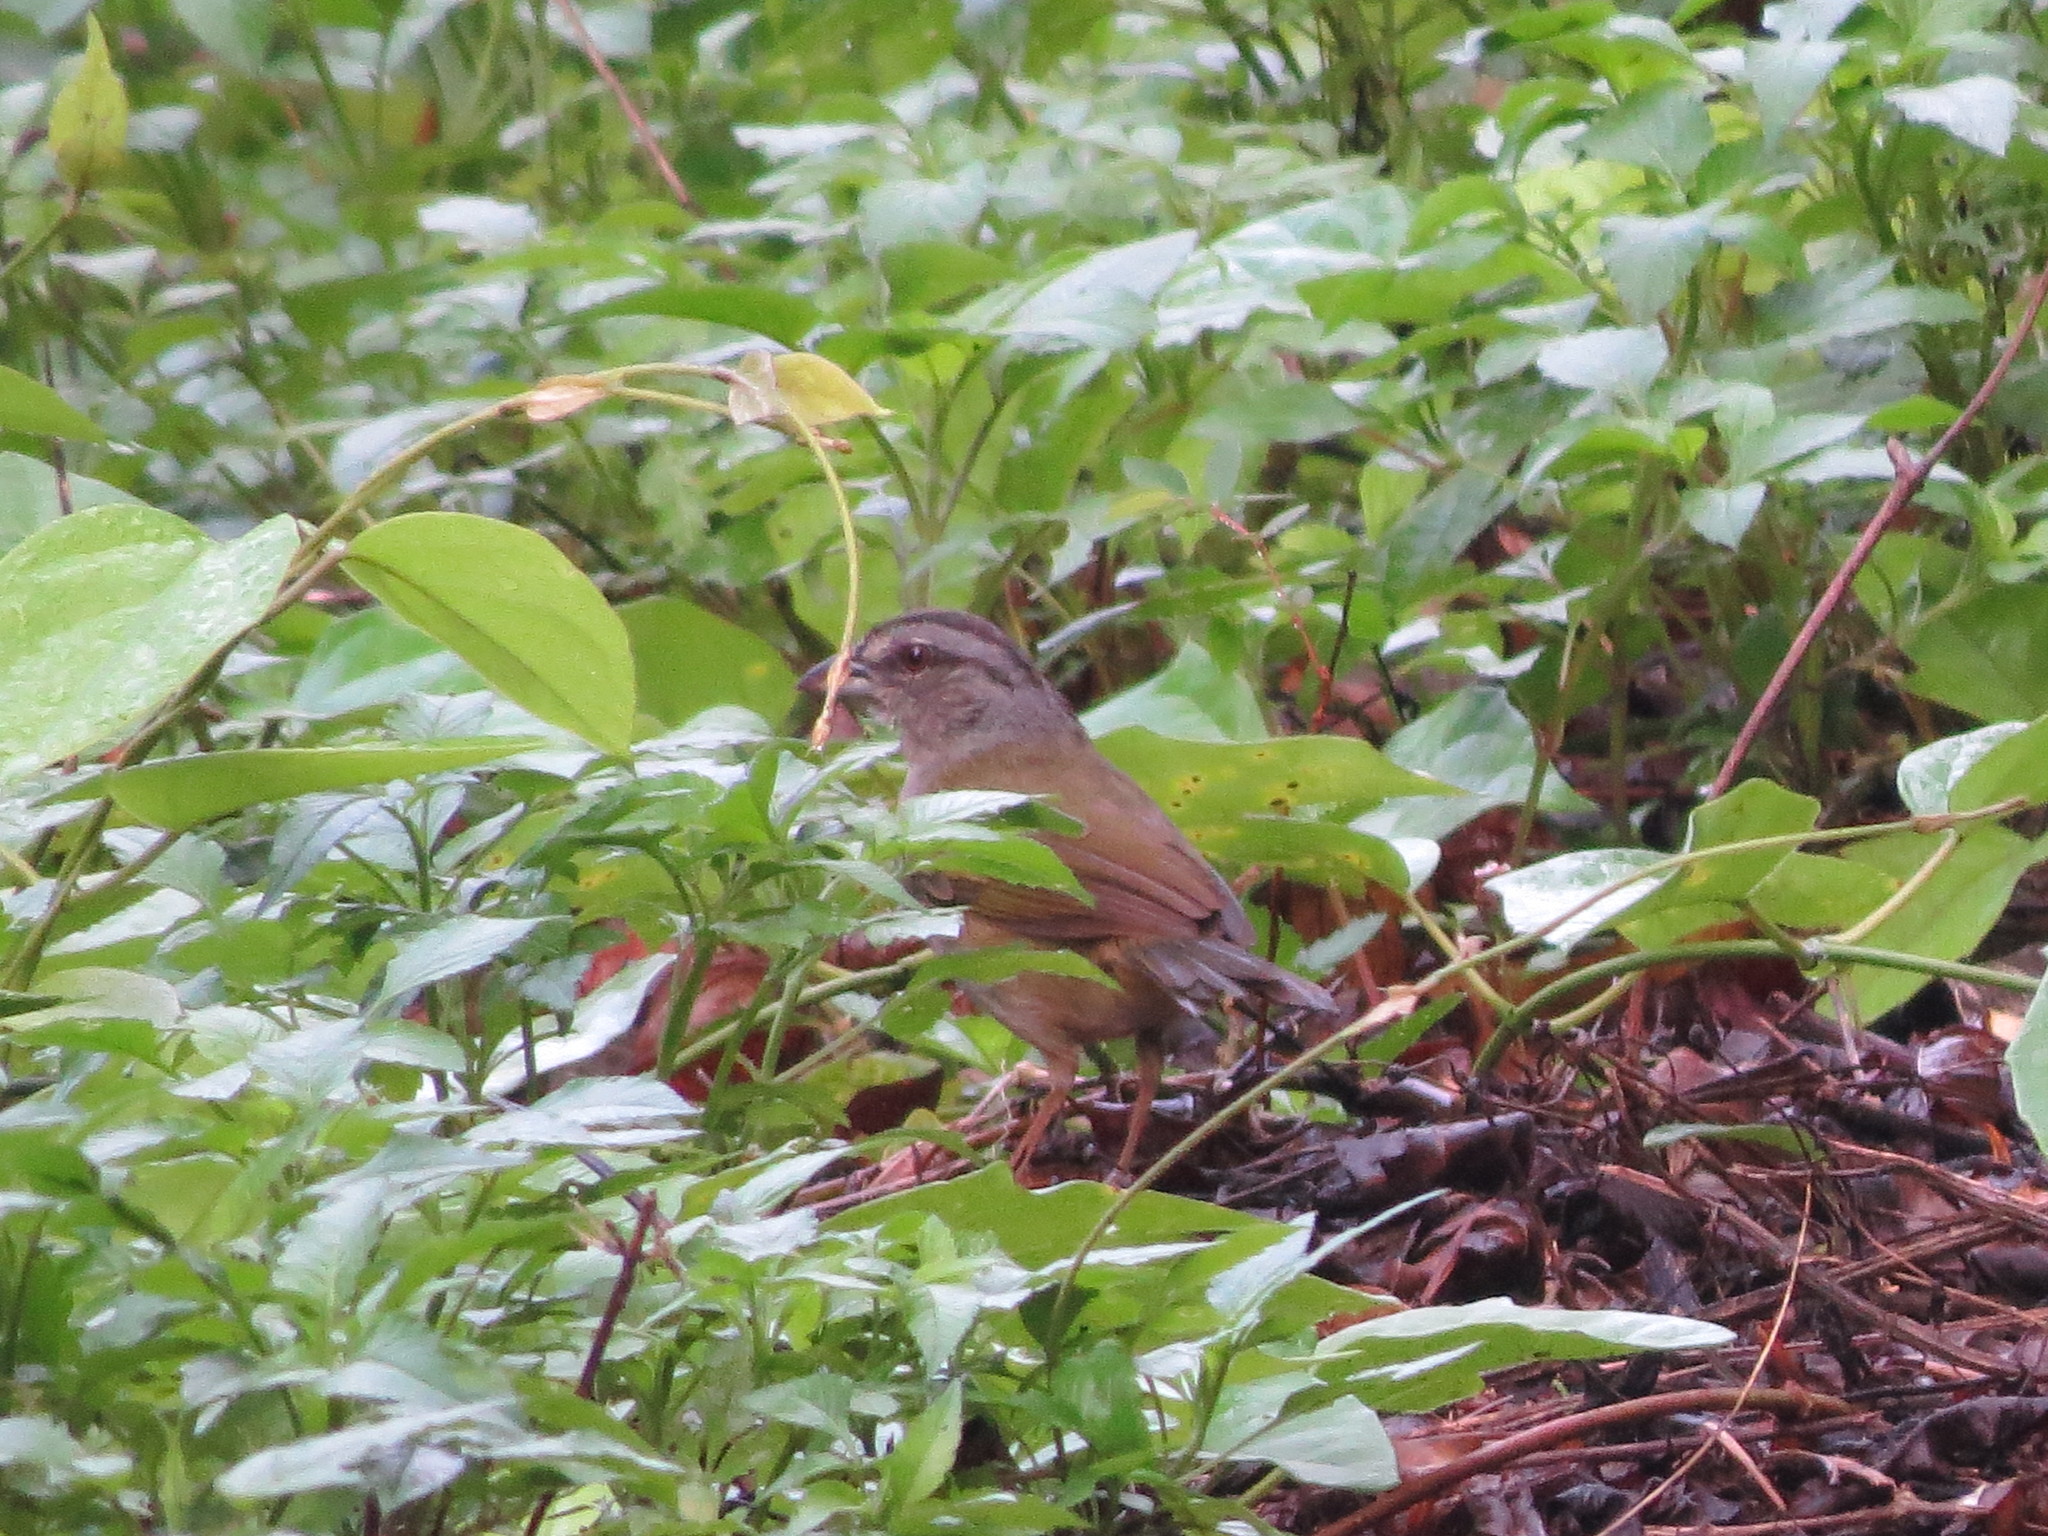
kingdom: Animalia
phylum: Chordata
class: Aves
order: Passeriformes
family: Passerellidae
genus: Arremonops
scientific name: Arremonops chloronotus
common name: Green-backed sparrow
